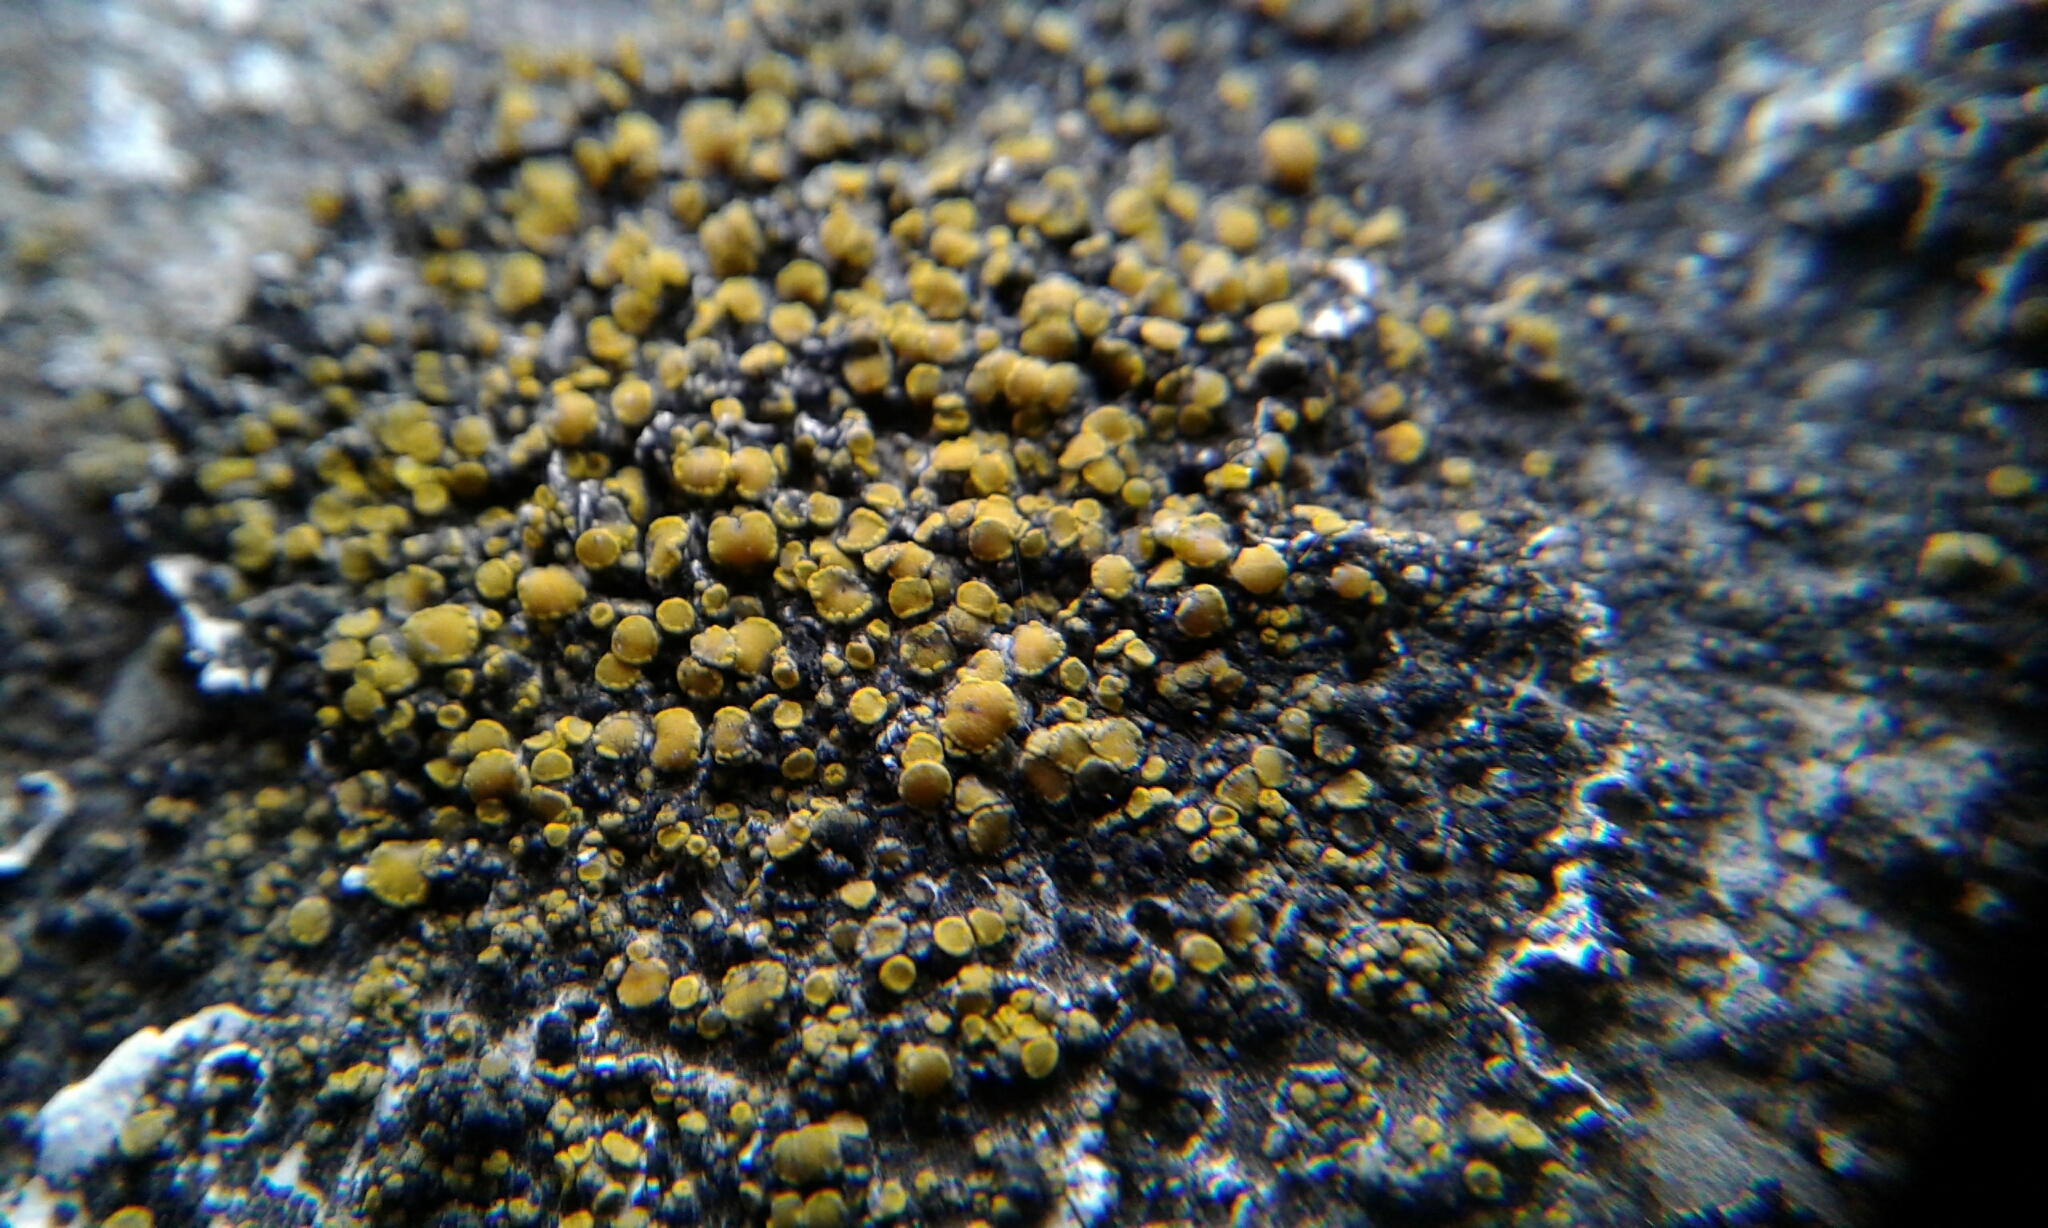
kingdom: Fungi
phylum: Ascomycota
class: Candelariomycetes
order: Candelariales
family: Candelariaceae
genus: Candelariella
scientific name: Candelariella aurella
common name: Hidden goldspeck lichen
